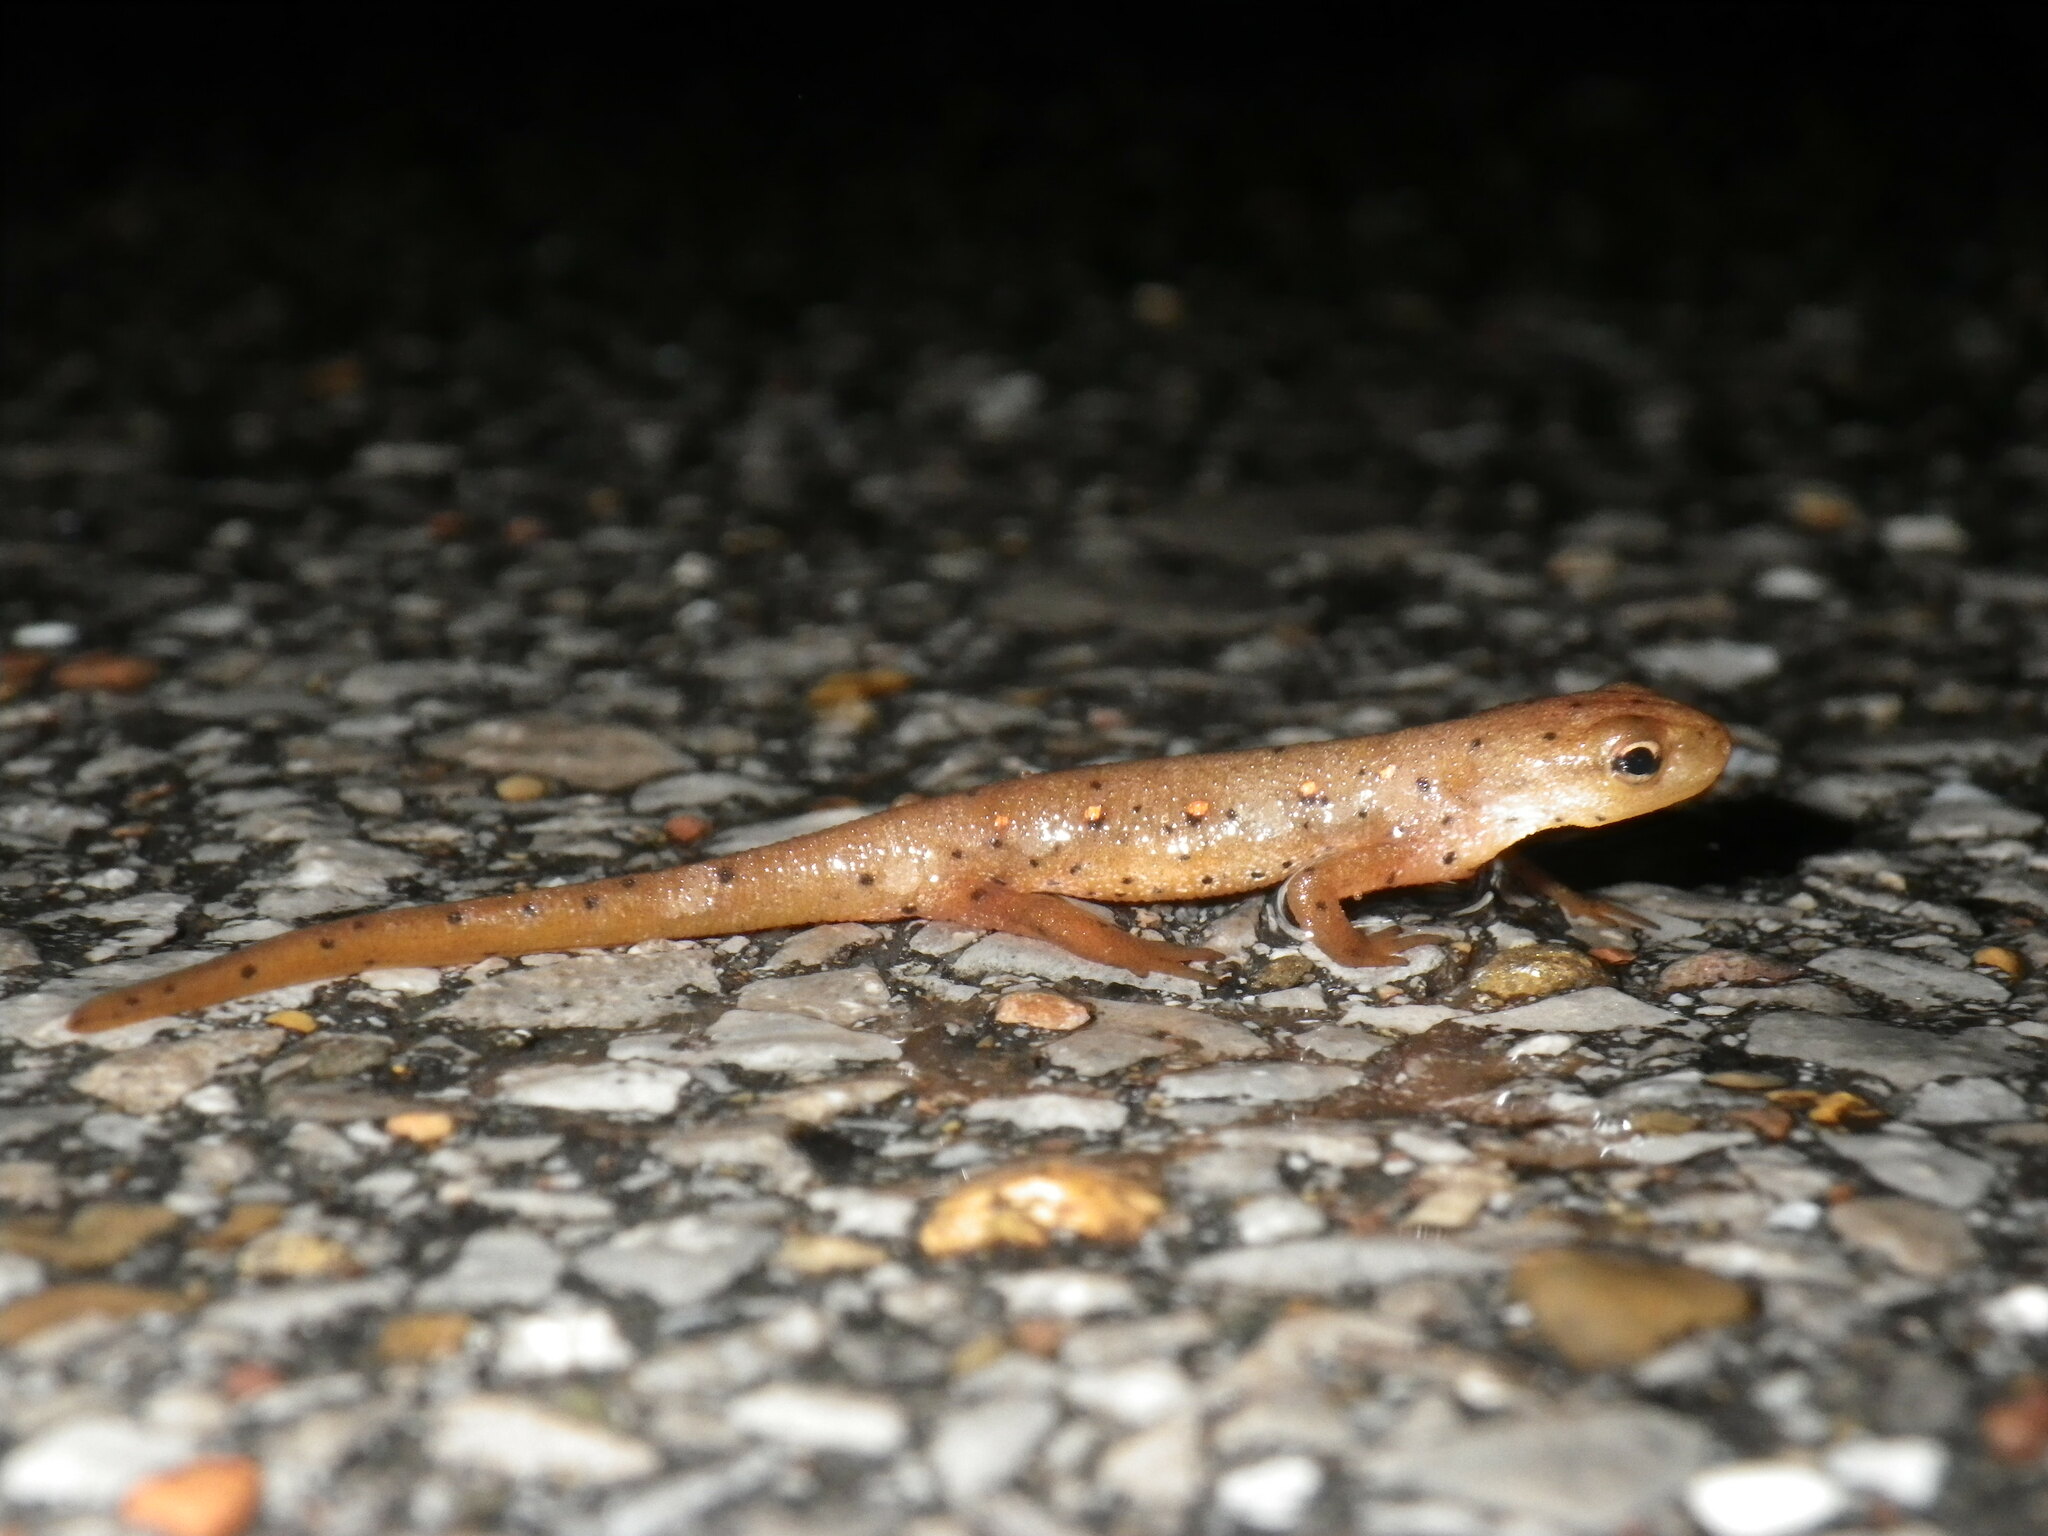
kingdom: Animalia
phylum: Chordata
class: Amphibia
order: Caudata
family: Salamandridae
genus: Notophthalmus
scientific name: Notophthalmus viridescens
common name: Eastern newt
